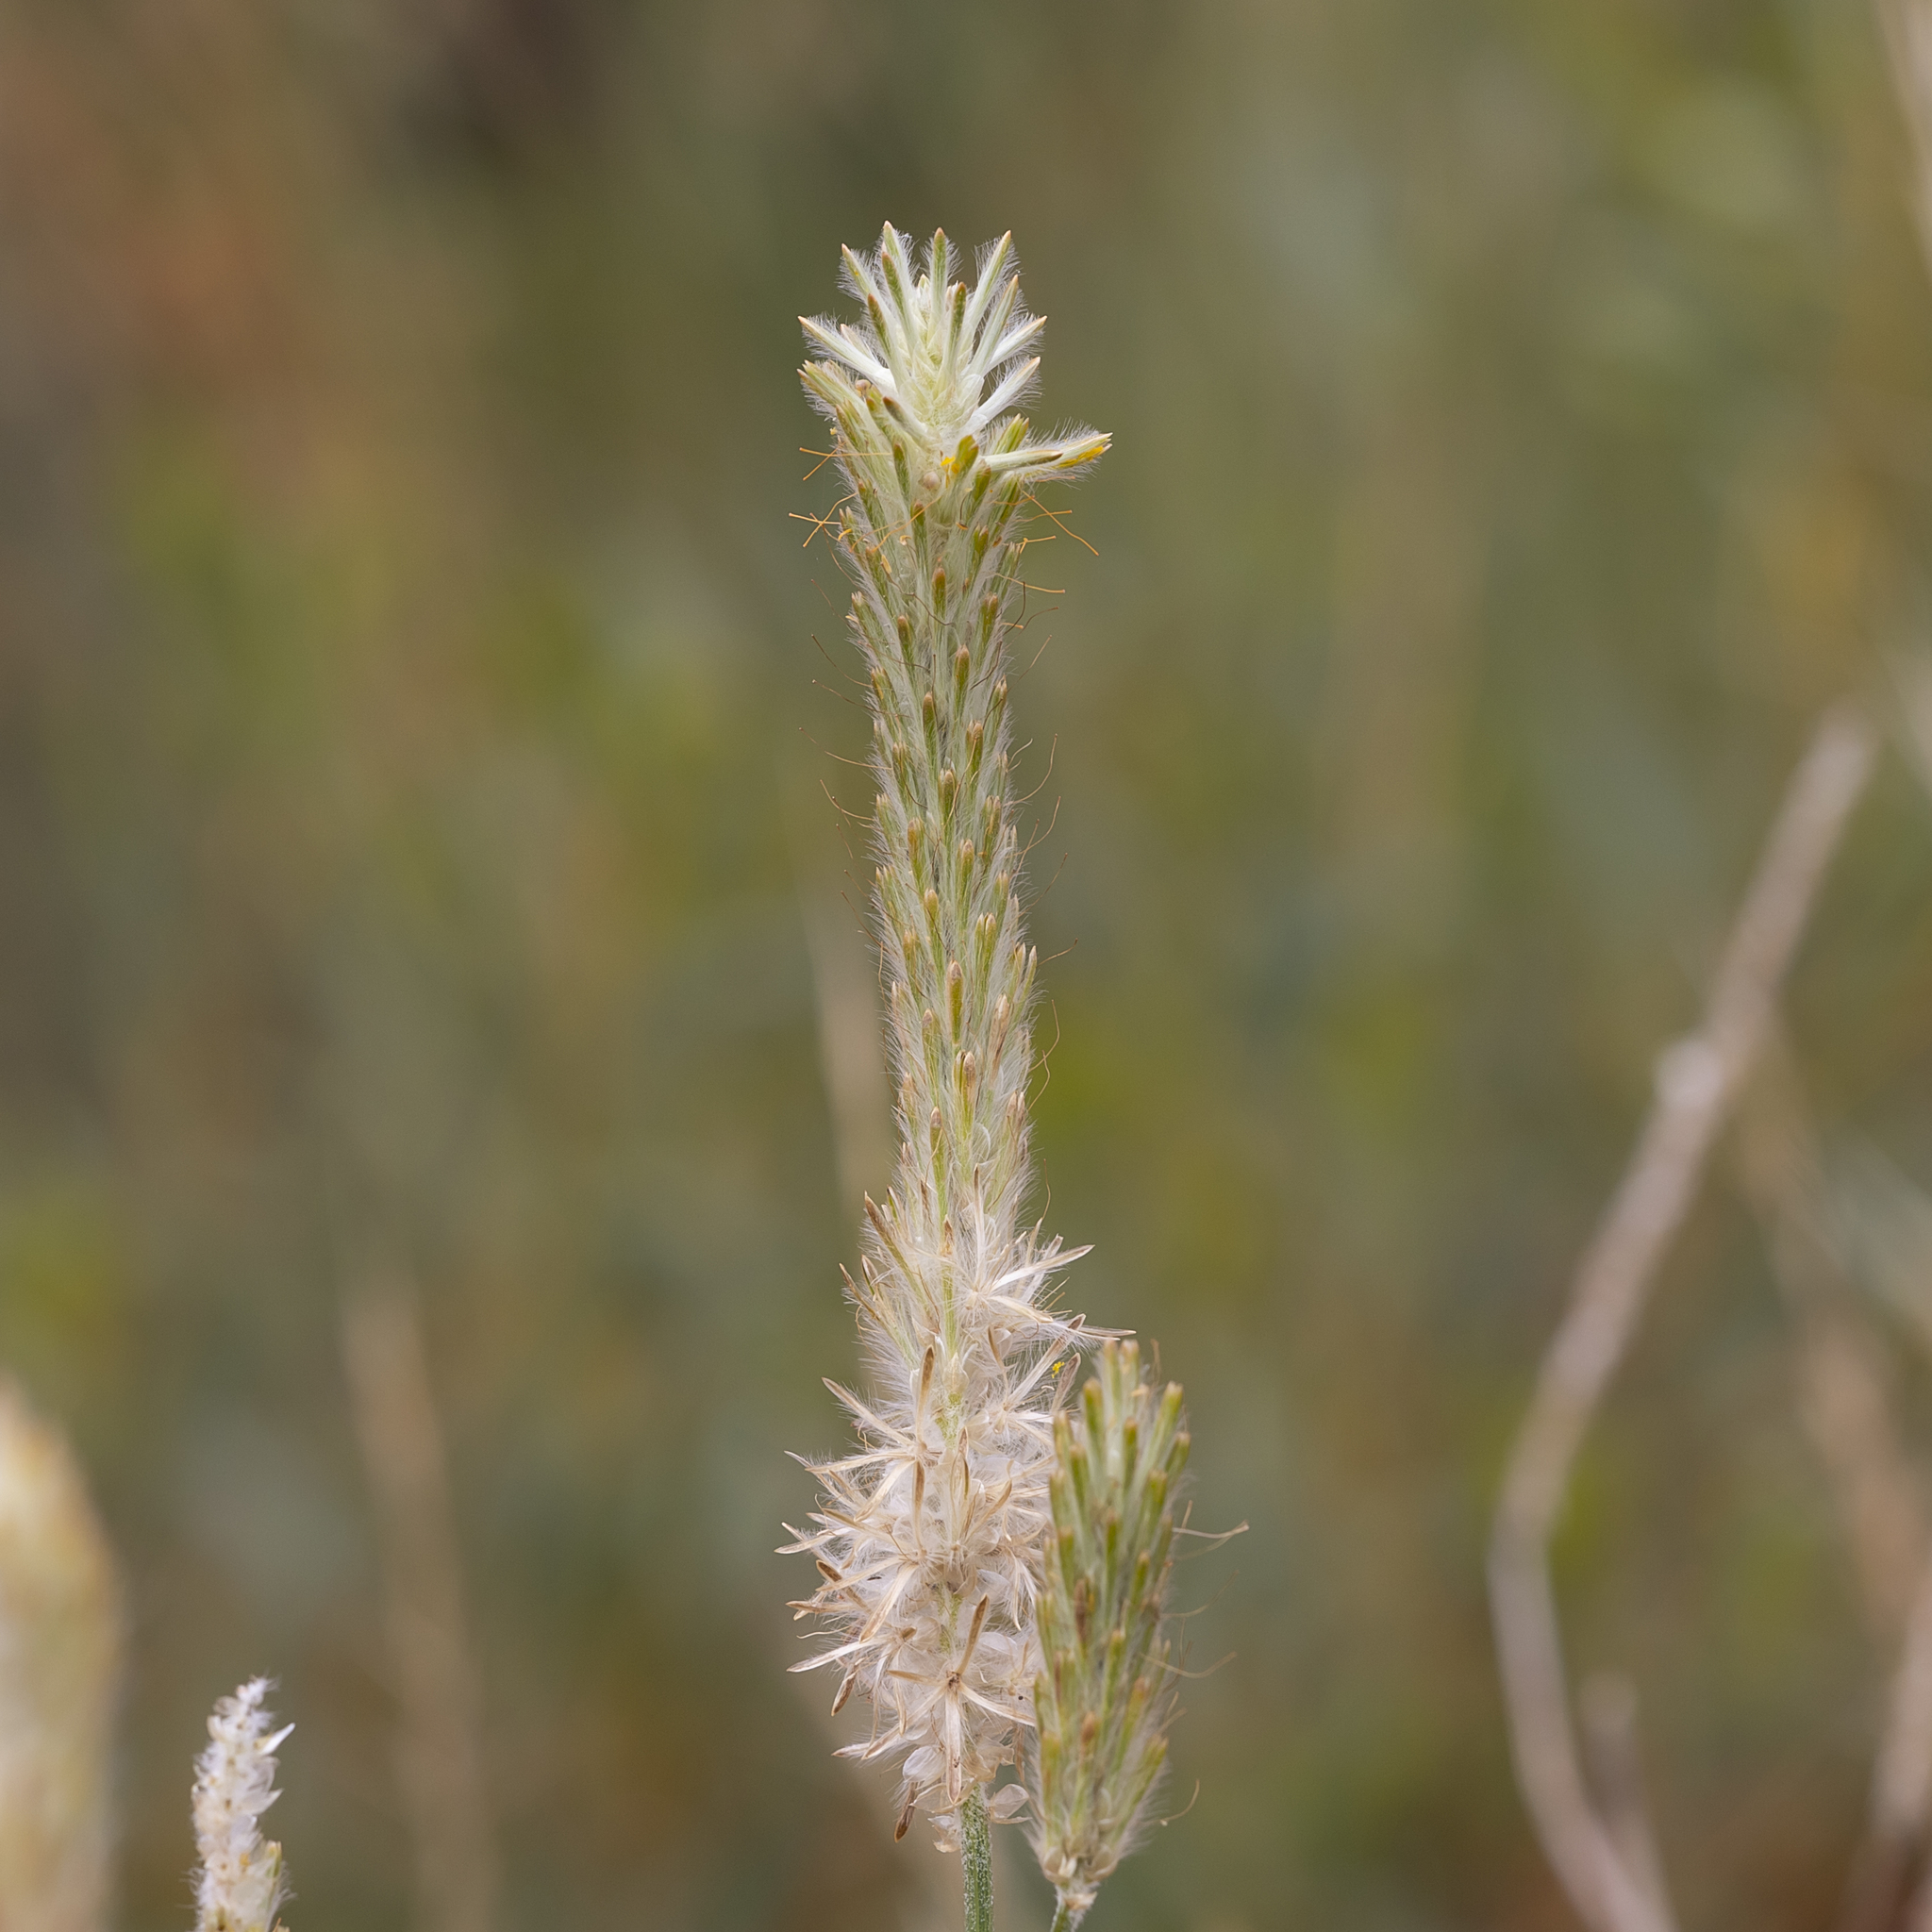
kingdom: Plantae
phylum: Tracheophyta
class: Magnoliopsida
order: Caryophyllales
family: Amaranthaceae
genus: Ptilotus
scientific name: Ptilotus polystachyus
